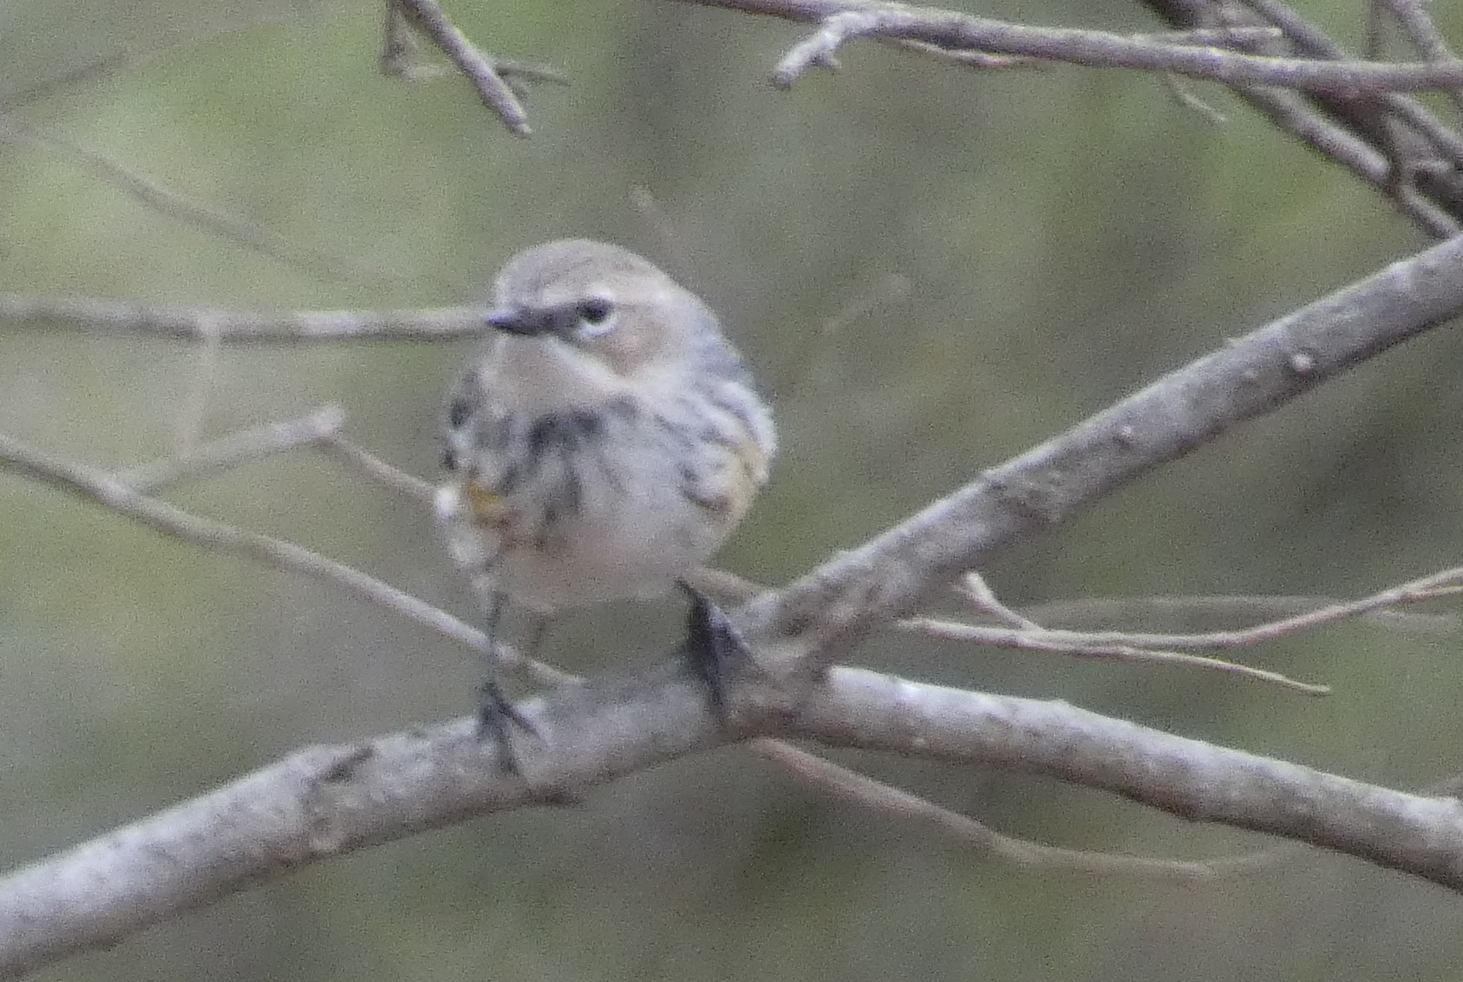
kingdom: Animalia
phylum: Chordata
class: Aves
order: Passeriformes
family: Parulidae
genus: Setophaga
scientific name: Setophaga coronata
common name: Myrtle warbler
